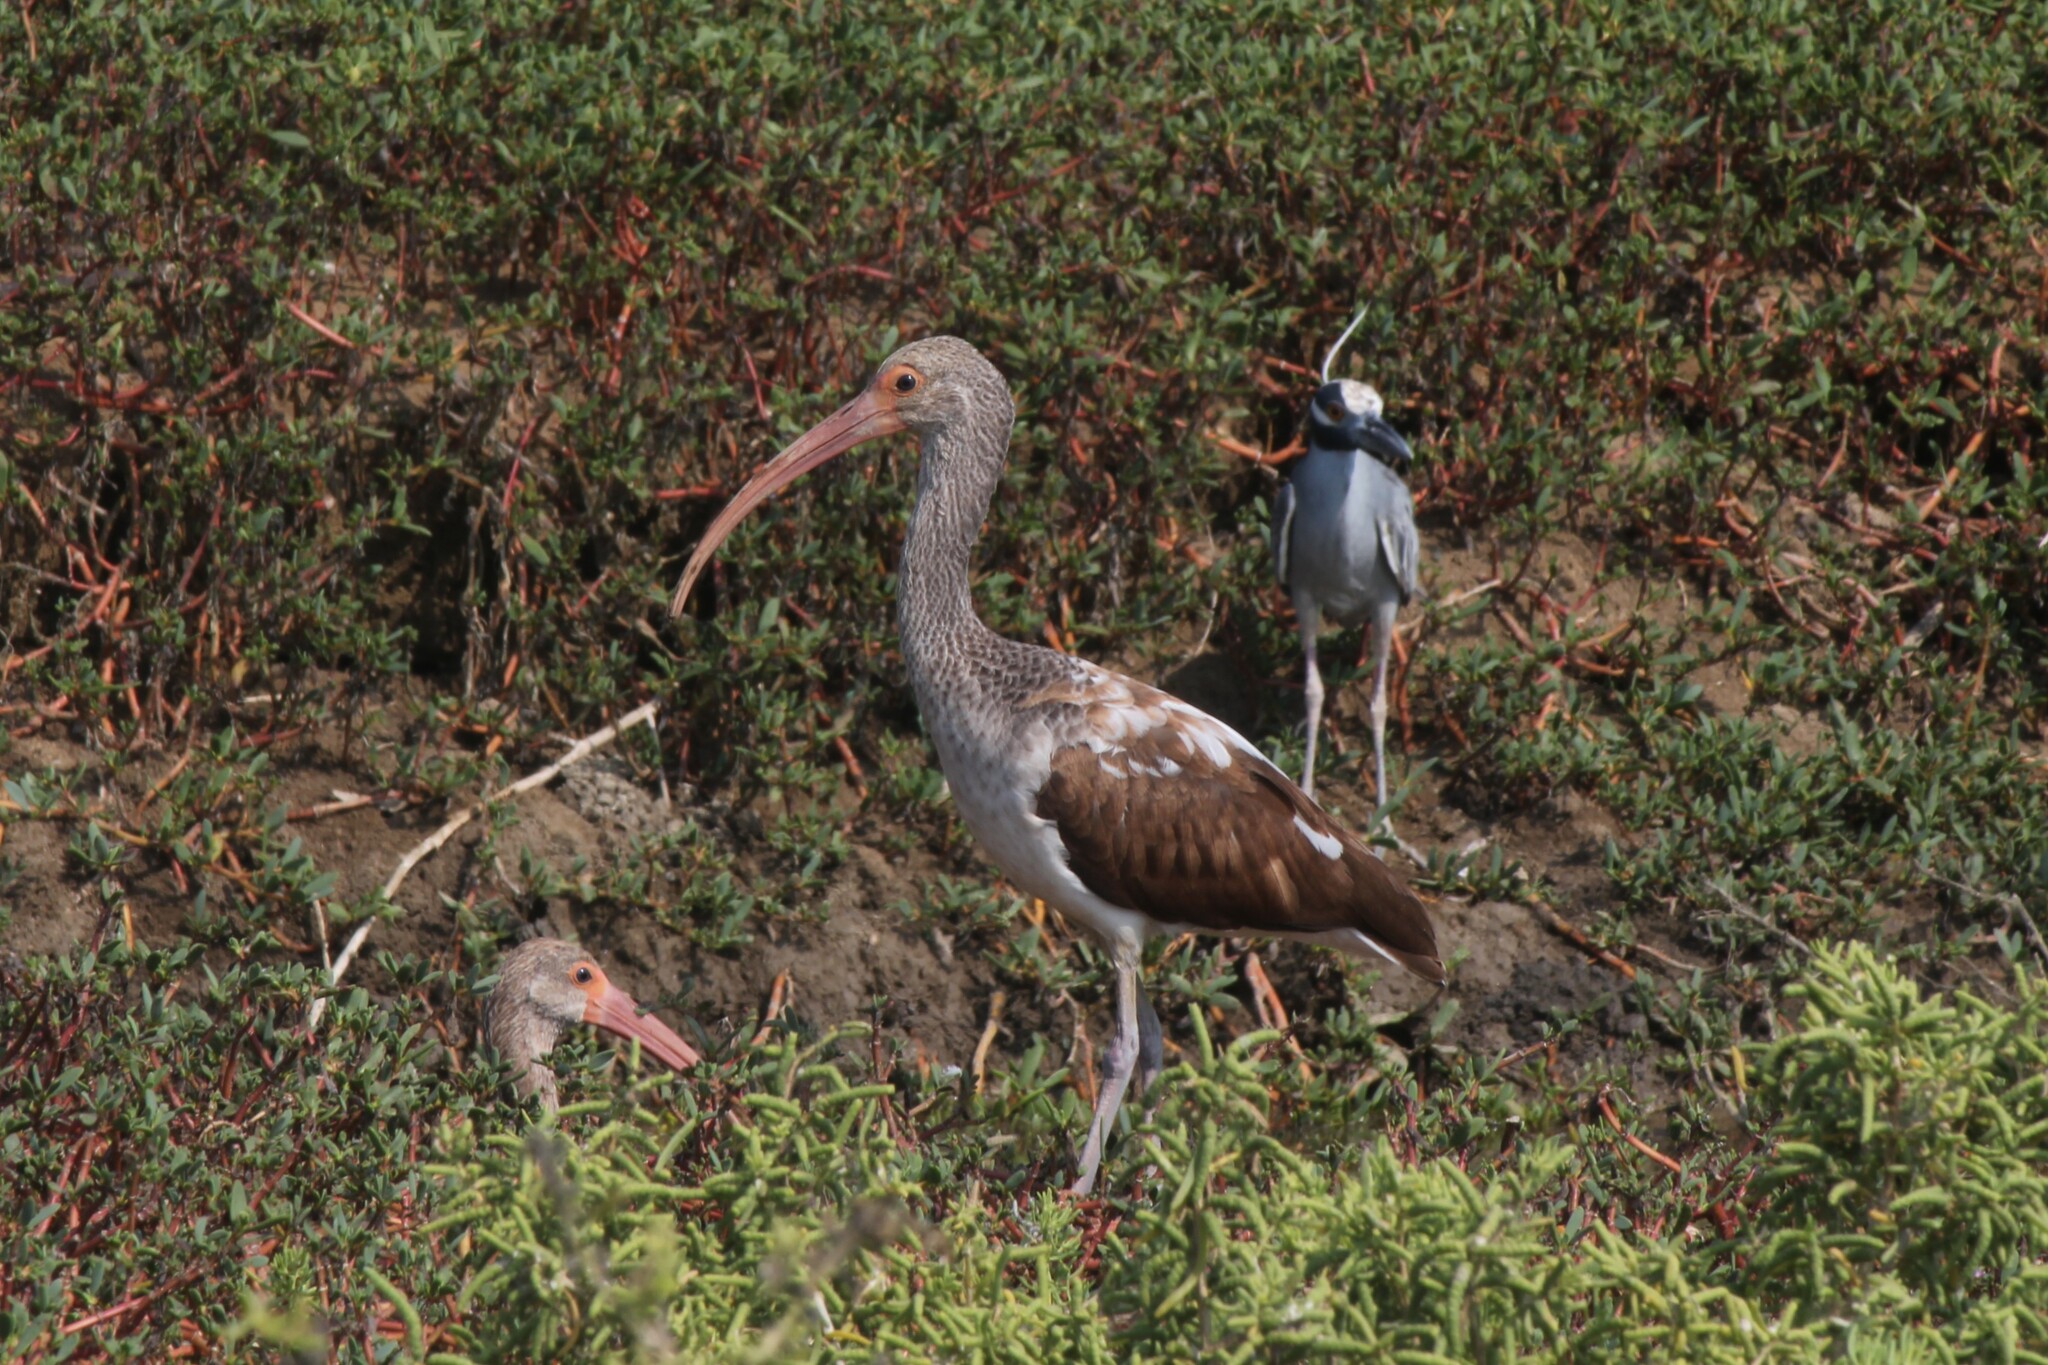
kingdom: Animalia
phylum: Chordata
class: Aves
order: Pelecaniformes
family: Threskiornithidae
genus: Eudocimus
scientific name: Eudocimus albus
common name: White ibis
